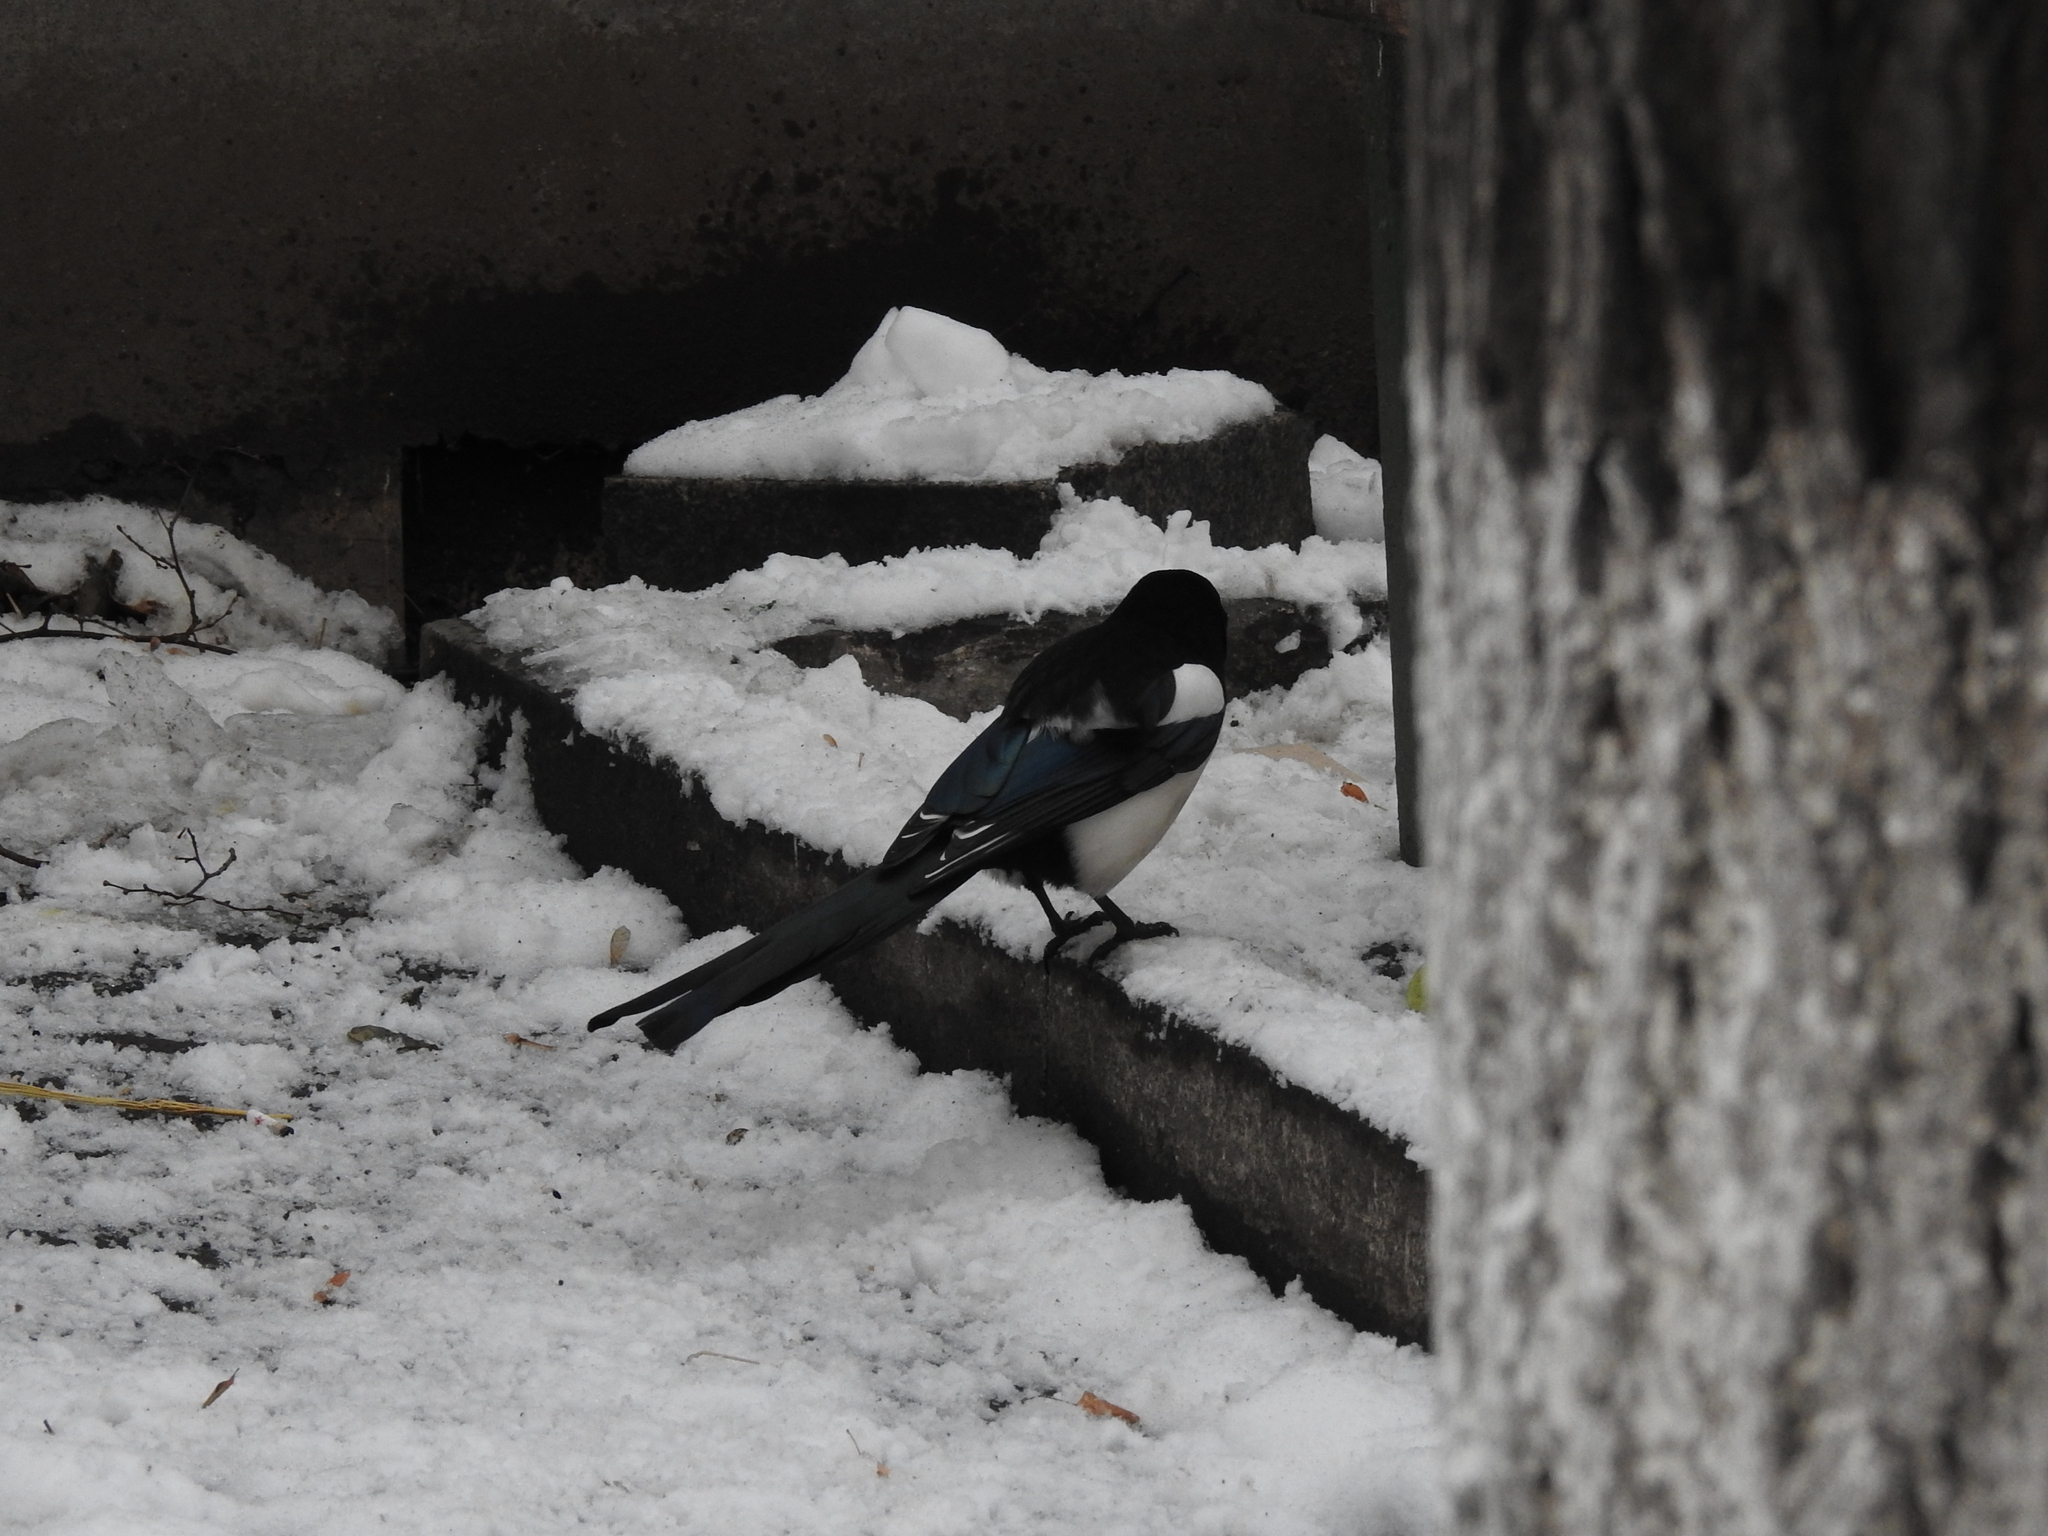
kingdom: Animalia
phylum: Chordata
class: Aves
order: Passeriformes
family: Corvidae
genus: Pica
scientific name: Pica pica
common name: Eurasian magpie
